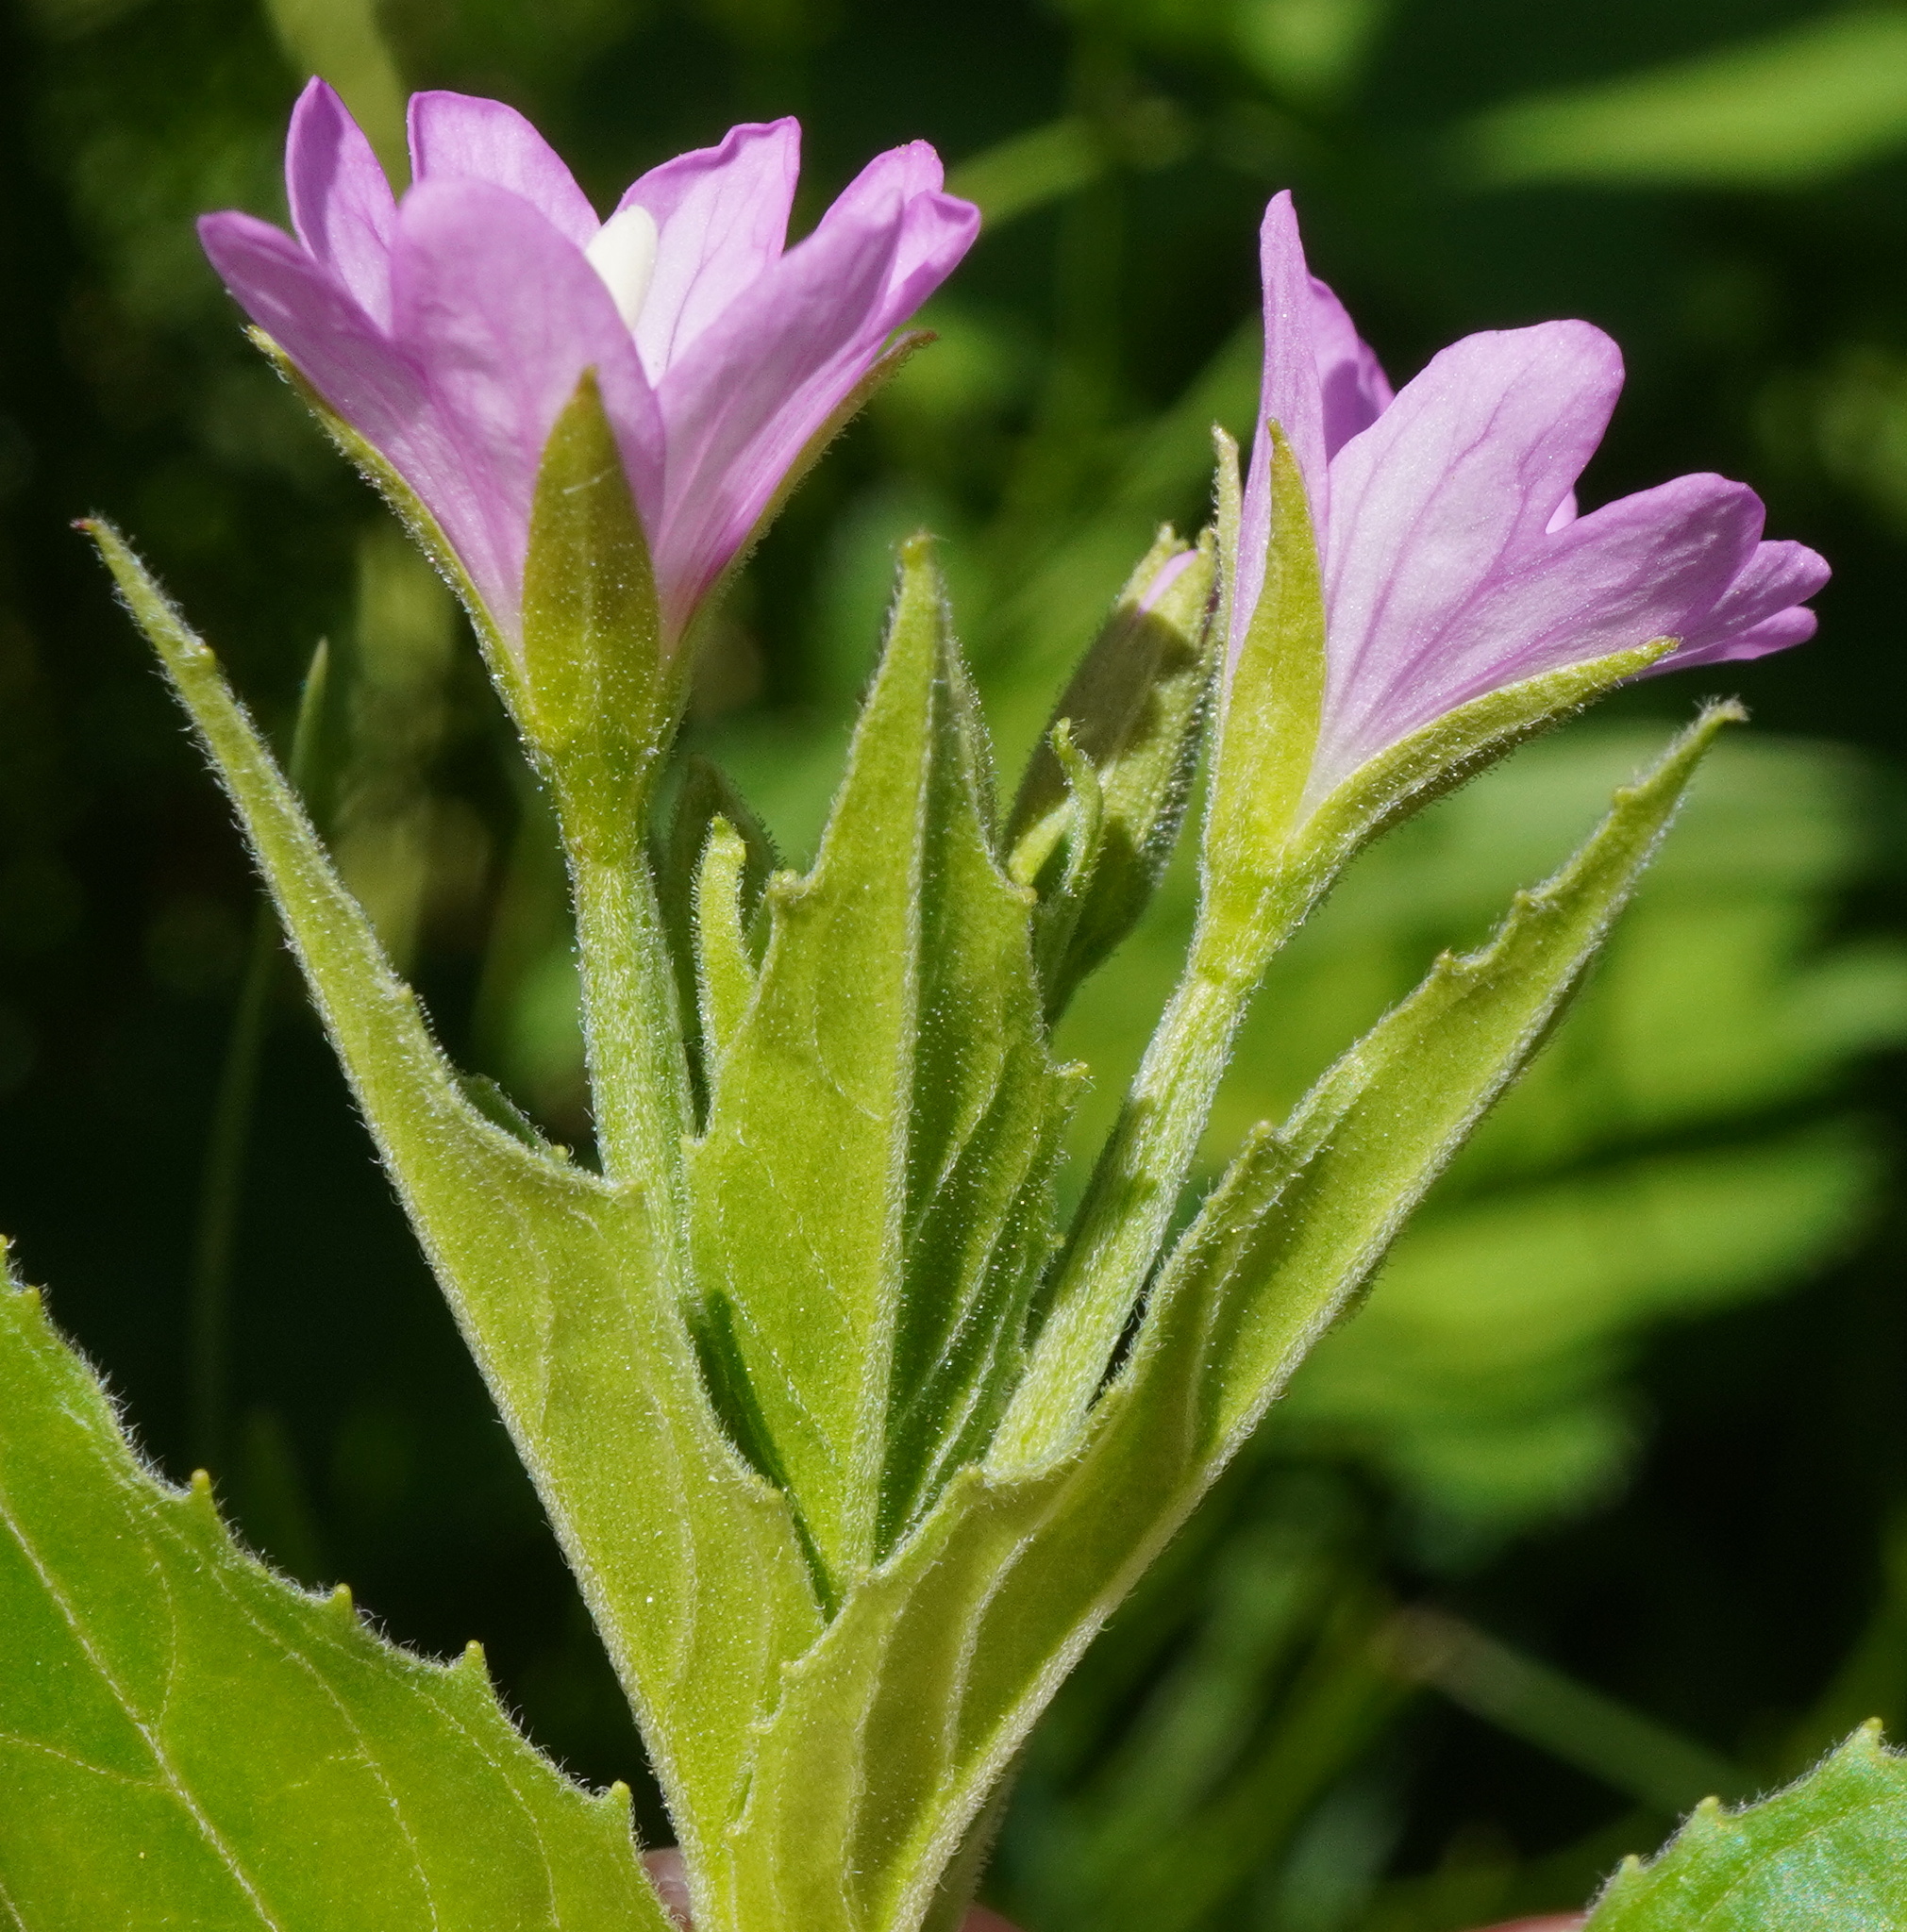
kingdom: Plantae
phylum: Tracheophyta
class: Magnoliopsida
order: Myrtales
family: Onagraceae
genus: Epilobium
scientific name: Epilobium alpestre
